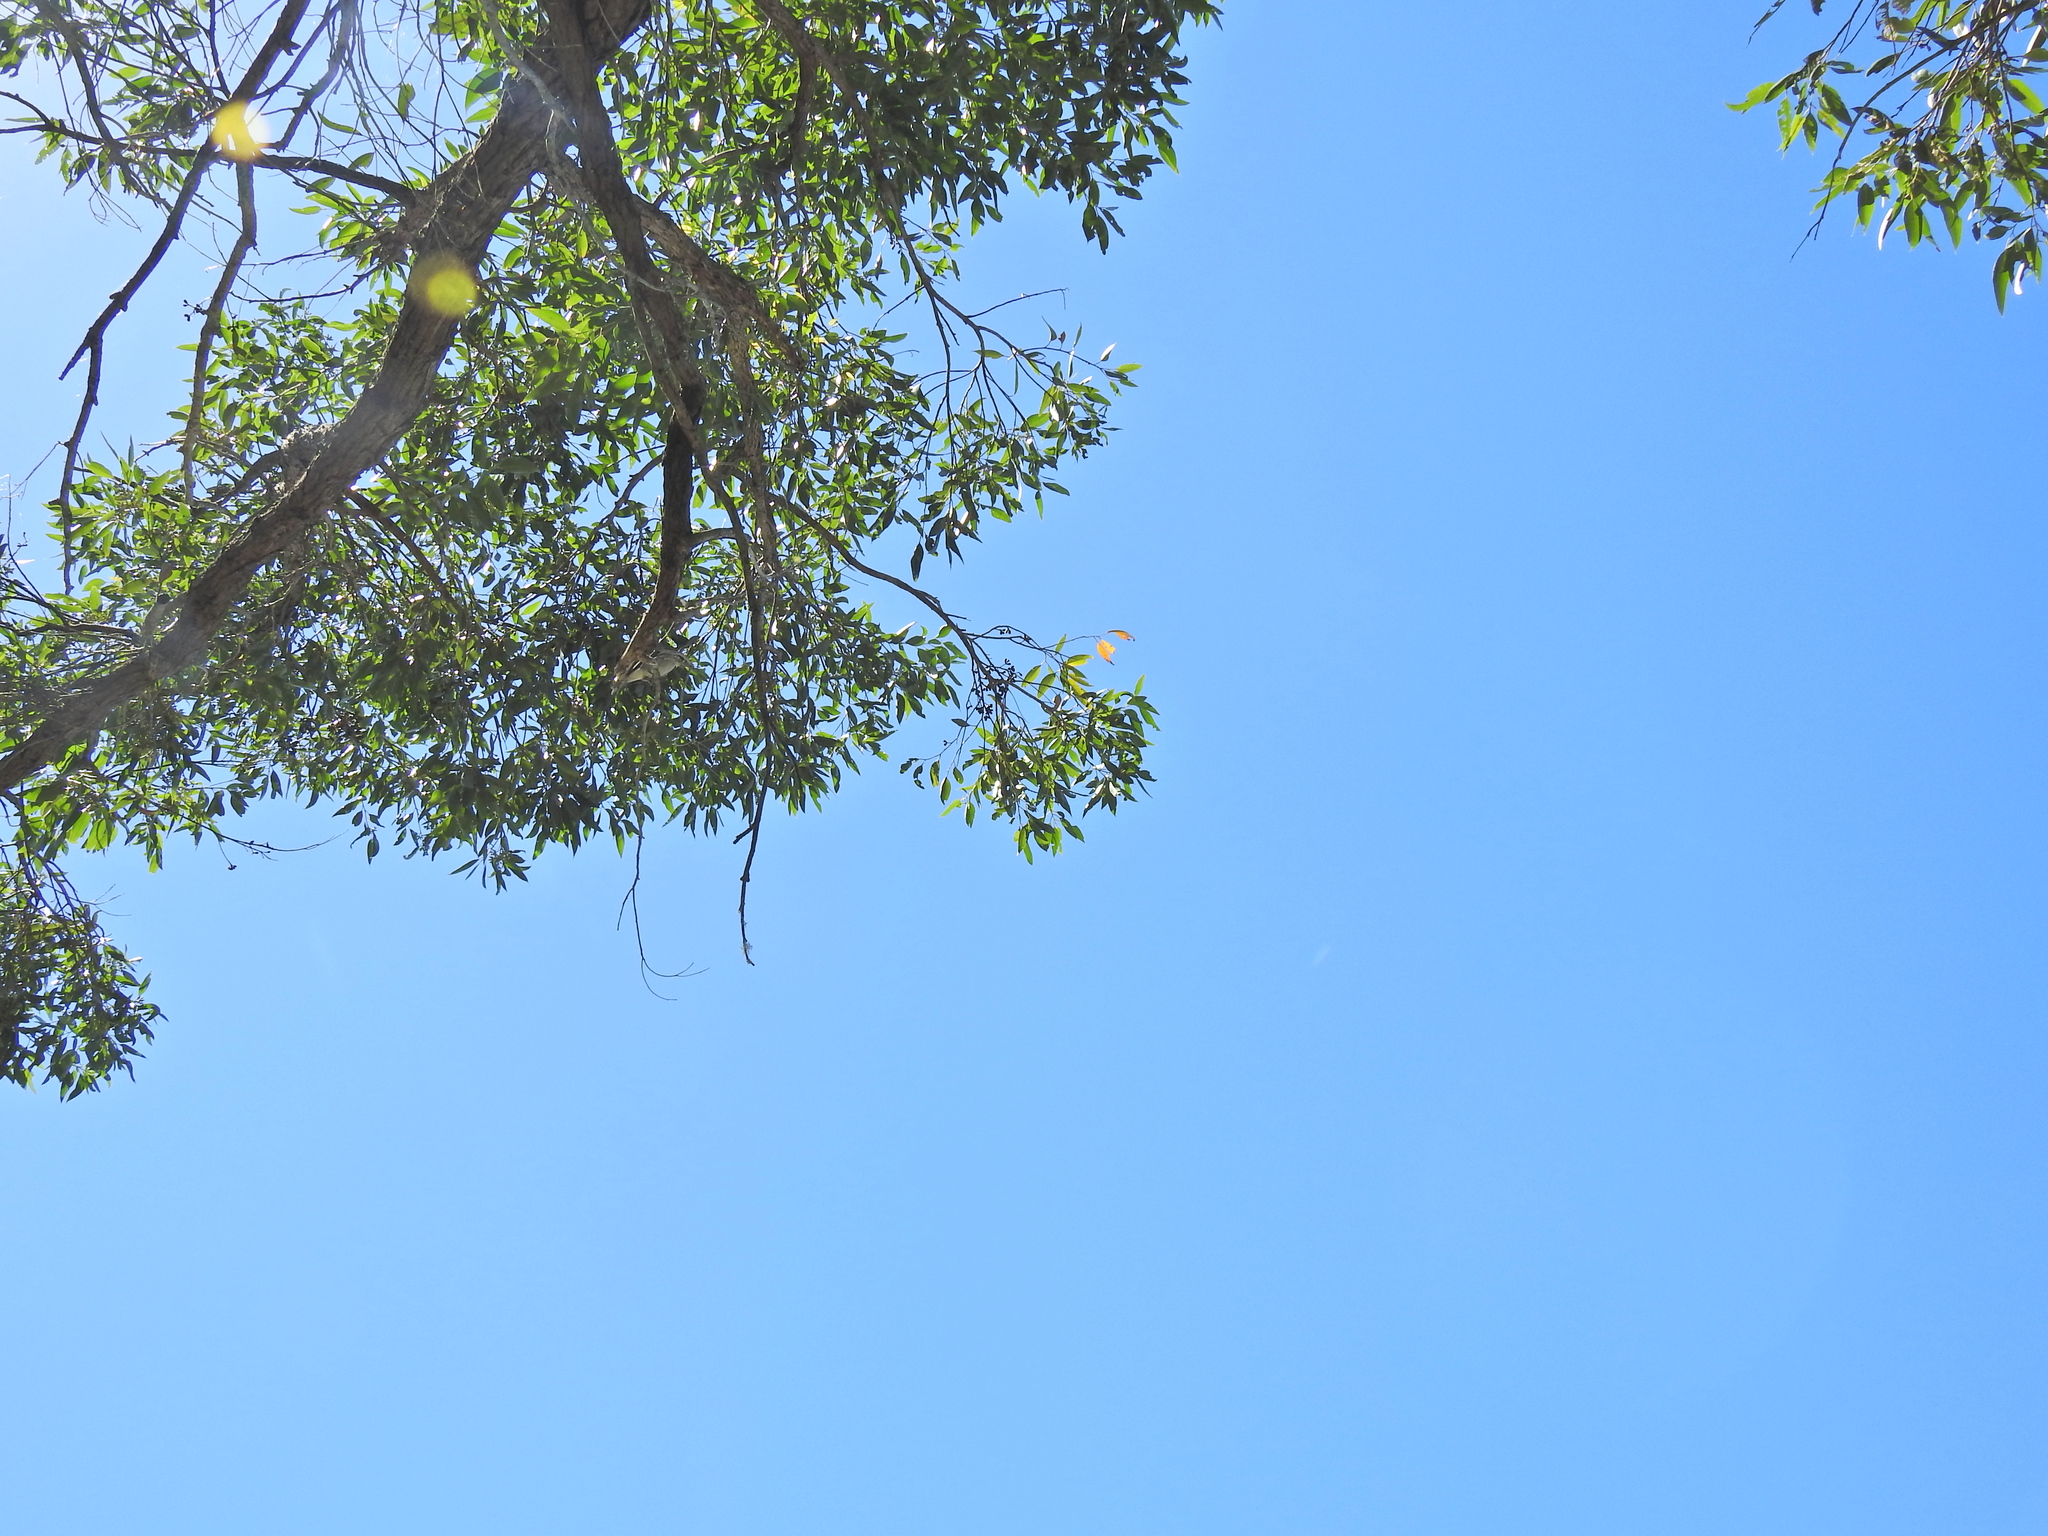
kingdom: Plantae
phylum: Tracheophyta
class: Magnoliopsida
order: Myrtales
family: Myrtaceae
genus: Eucalyptus
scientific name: Eucalyptus robusta
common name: Swampmahogany
